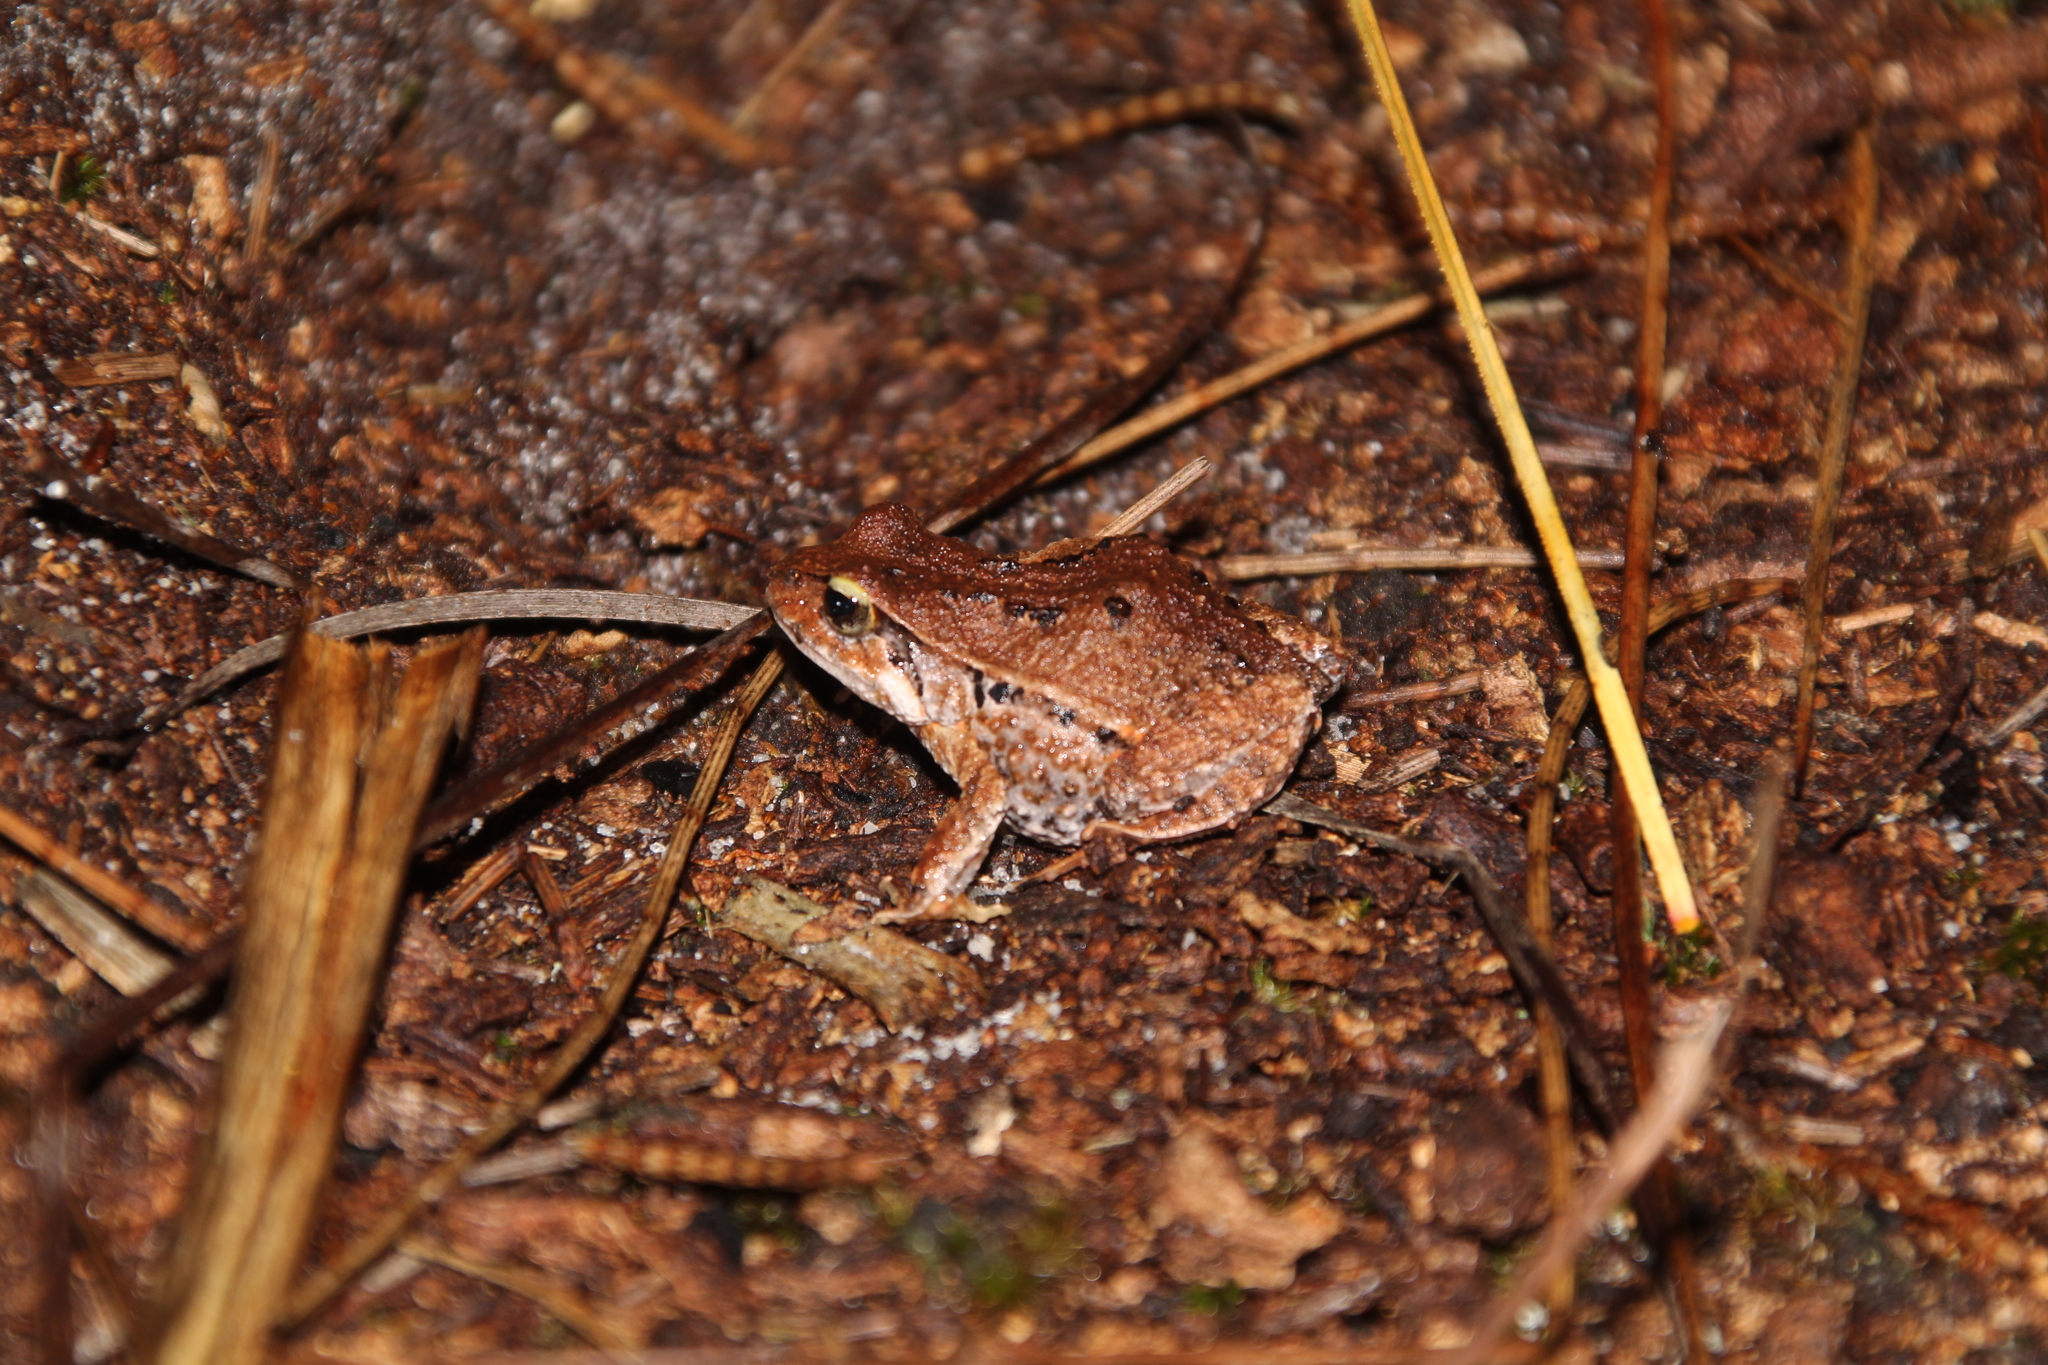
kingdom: Animalia
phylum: Chordata
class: Amphibia
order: Anura
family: Myobatrachidae
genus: Crinia
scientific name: Crinia georgiana
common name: Quacking frog
